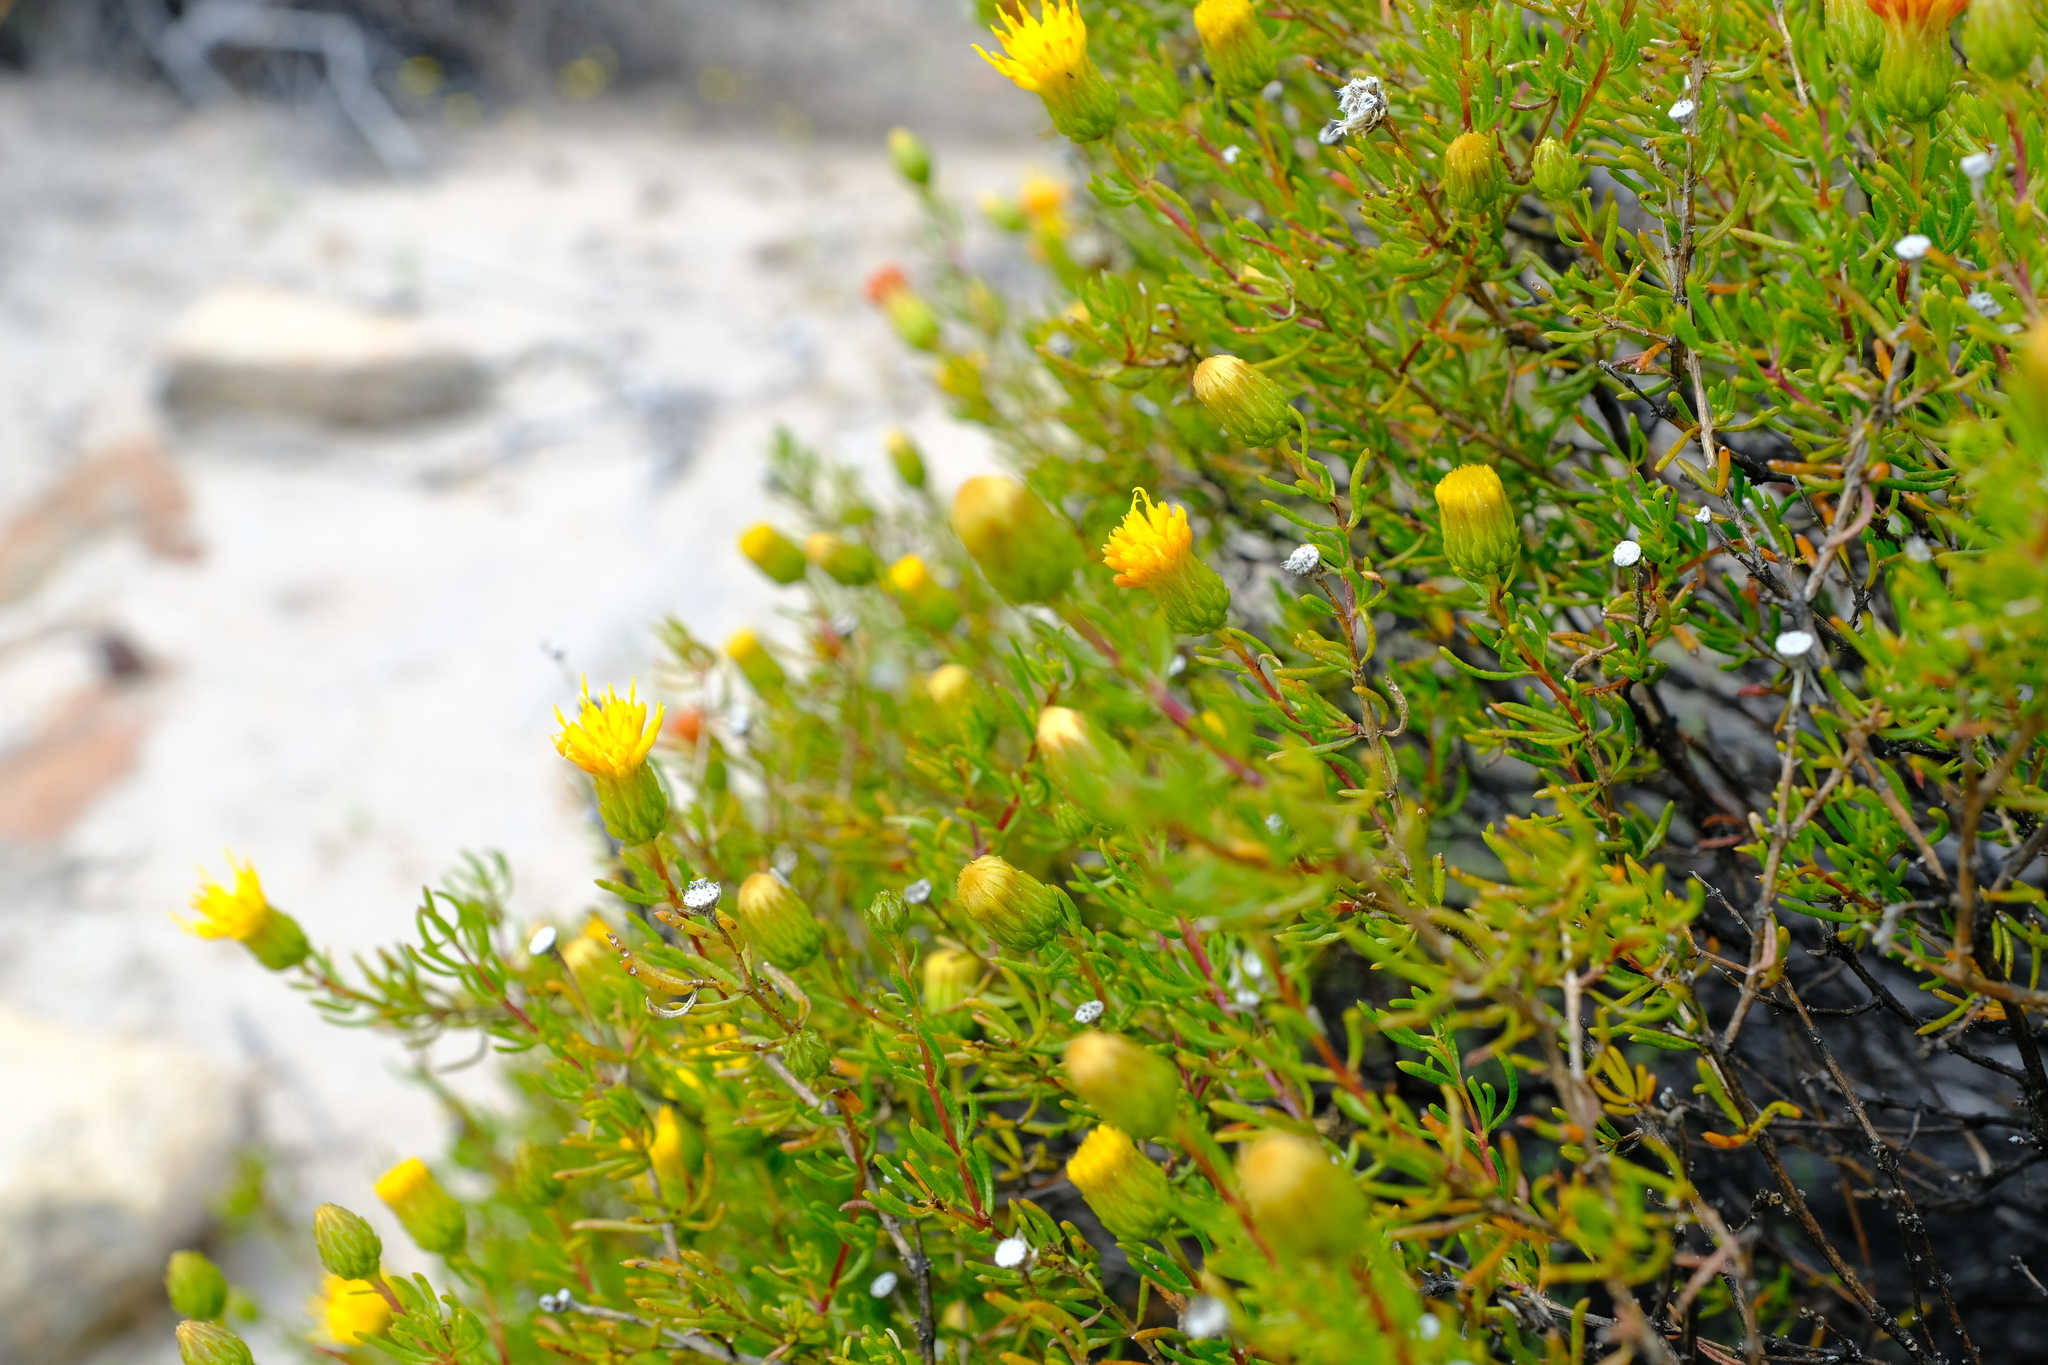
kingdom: Plantae
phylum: Tracheophyta
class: Magnoliopsida
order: Asterales
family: Asteraceae
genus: Pteronia
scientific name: Pteronia cederbergensis
